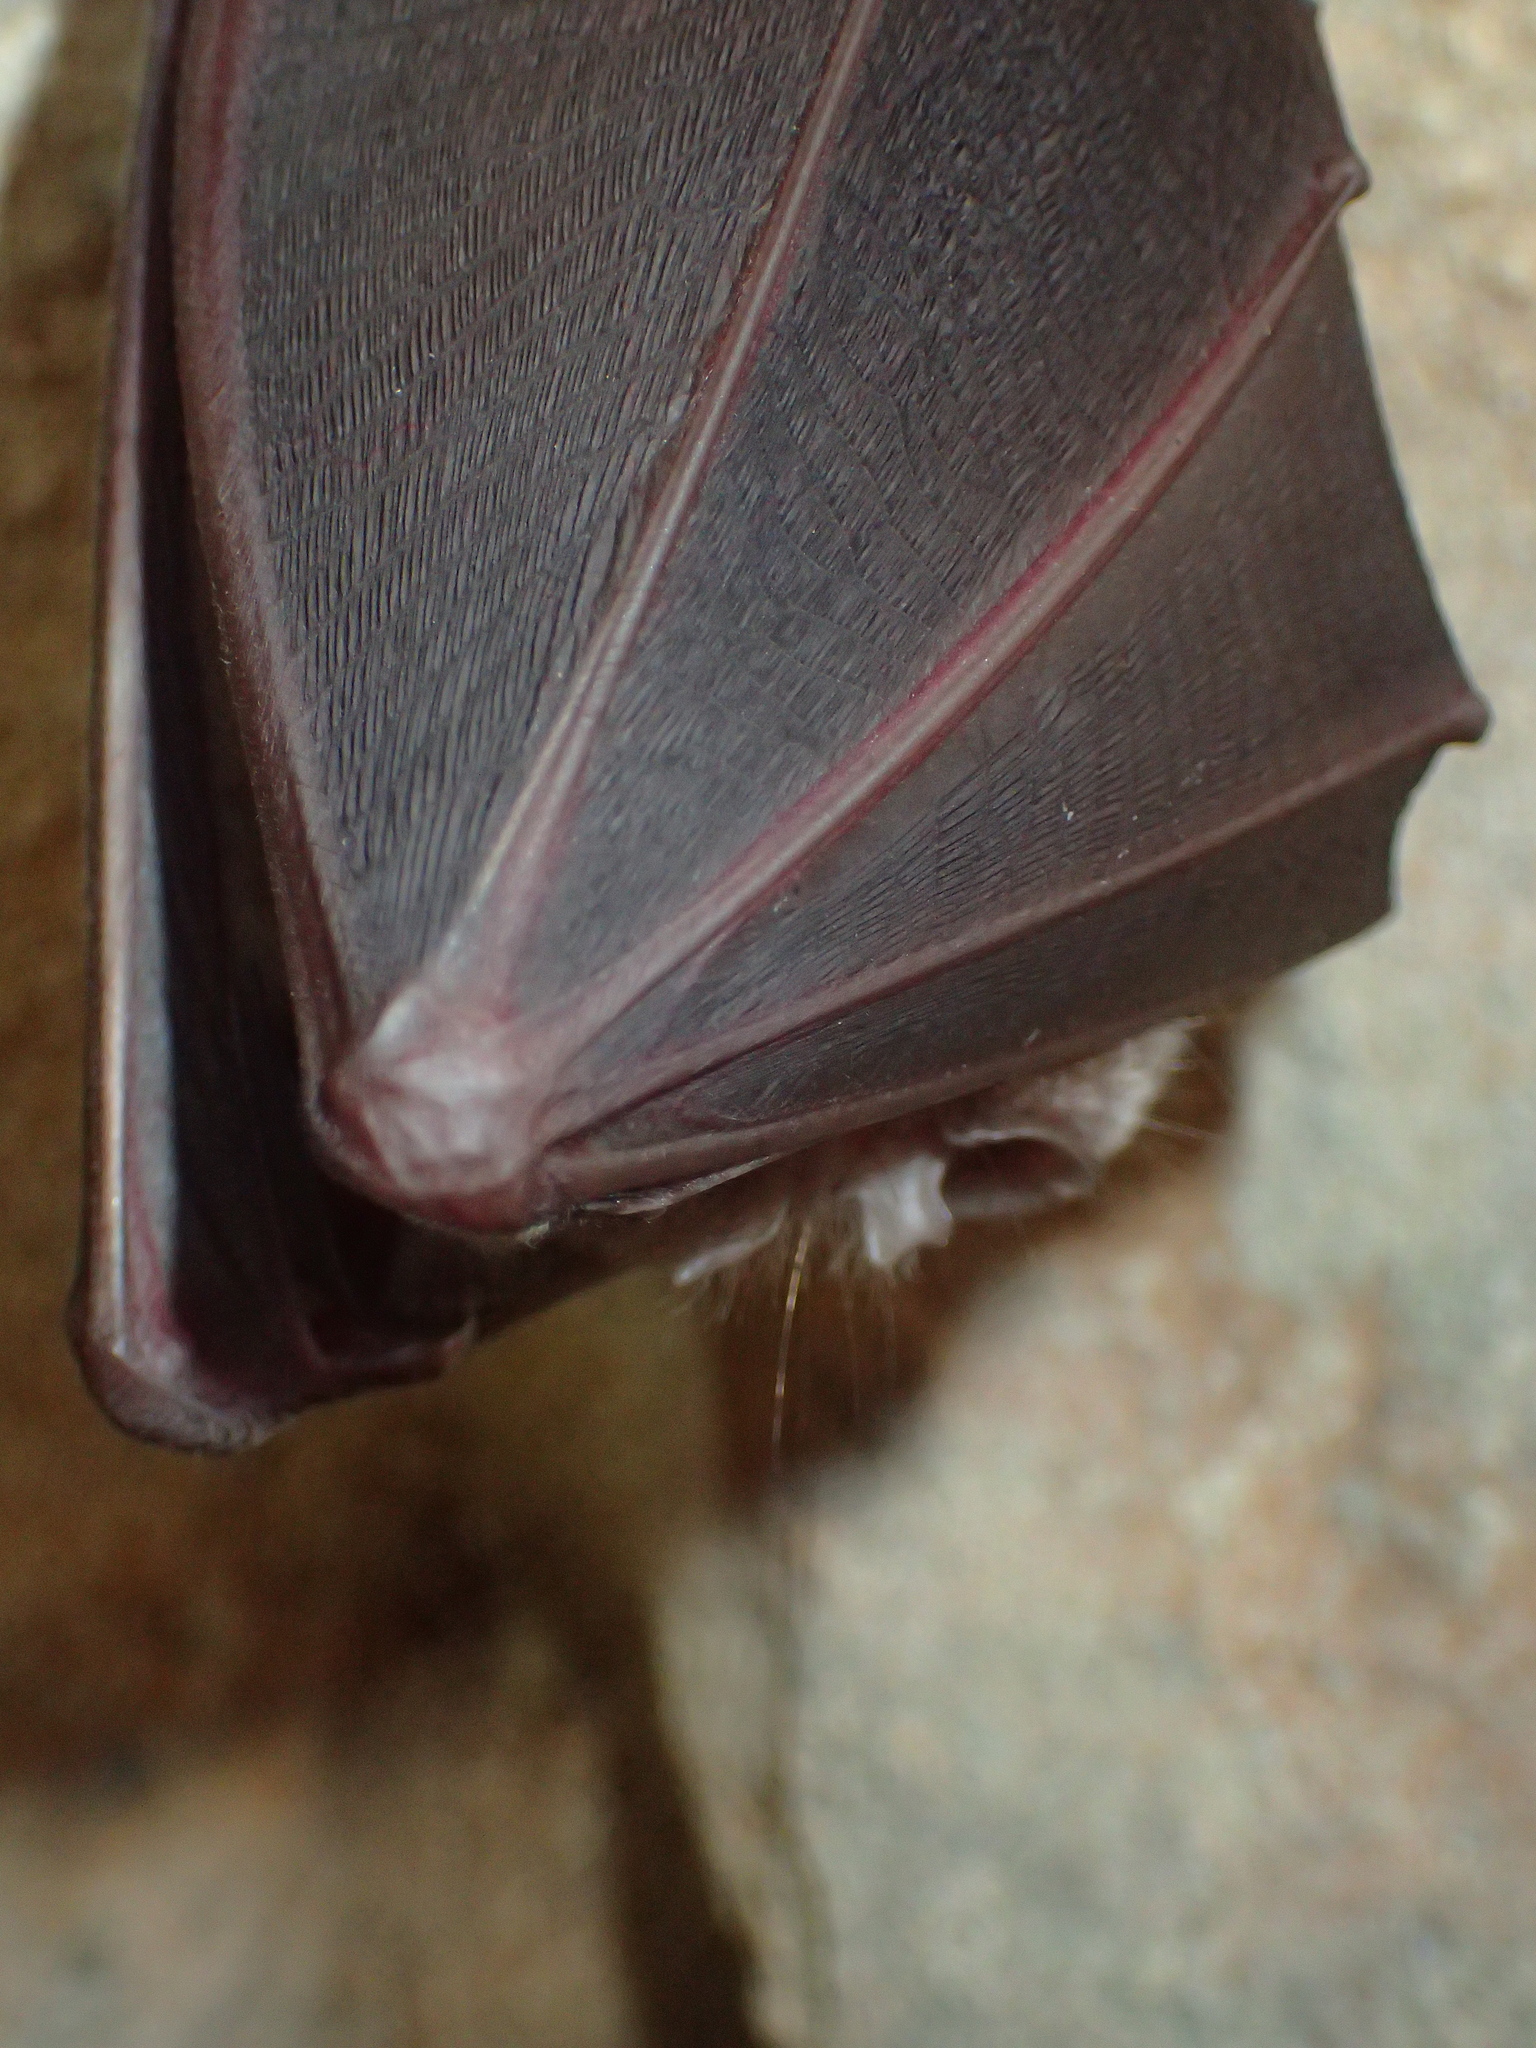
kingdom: Animalia
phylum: Chordata
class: Mammalia
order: Chiroptera
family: Rhinolophidae
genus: Rhinolophus
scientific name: Rhinolophus ferrumequinum
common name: Greater horseshoe bat
